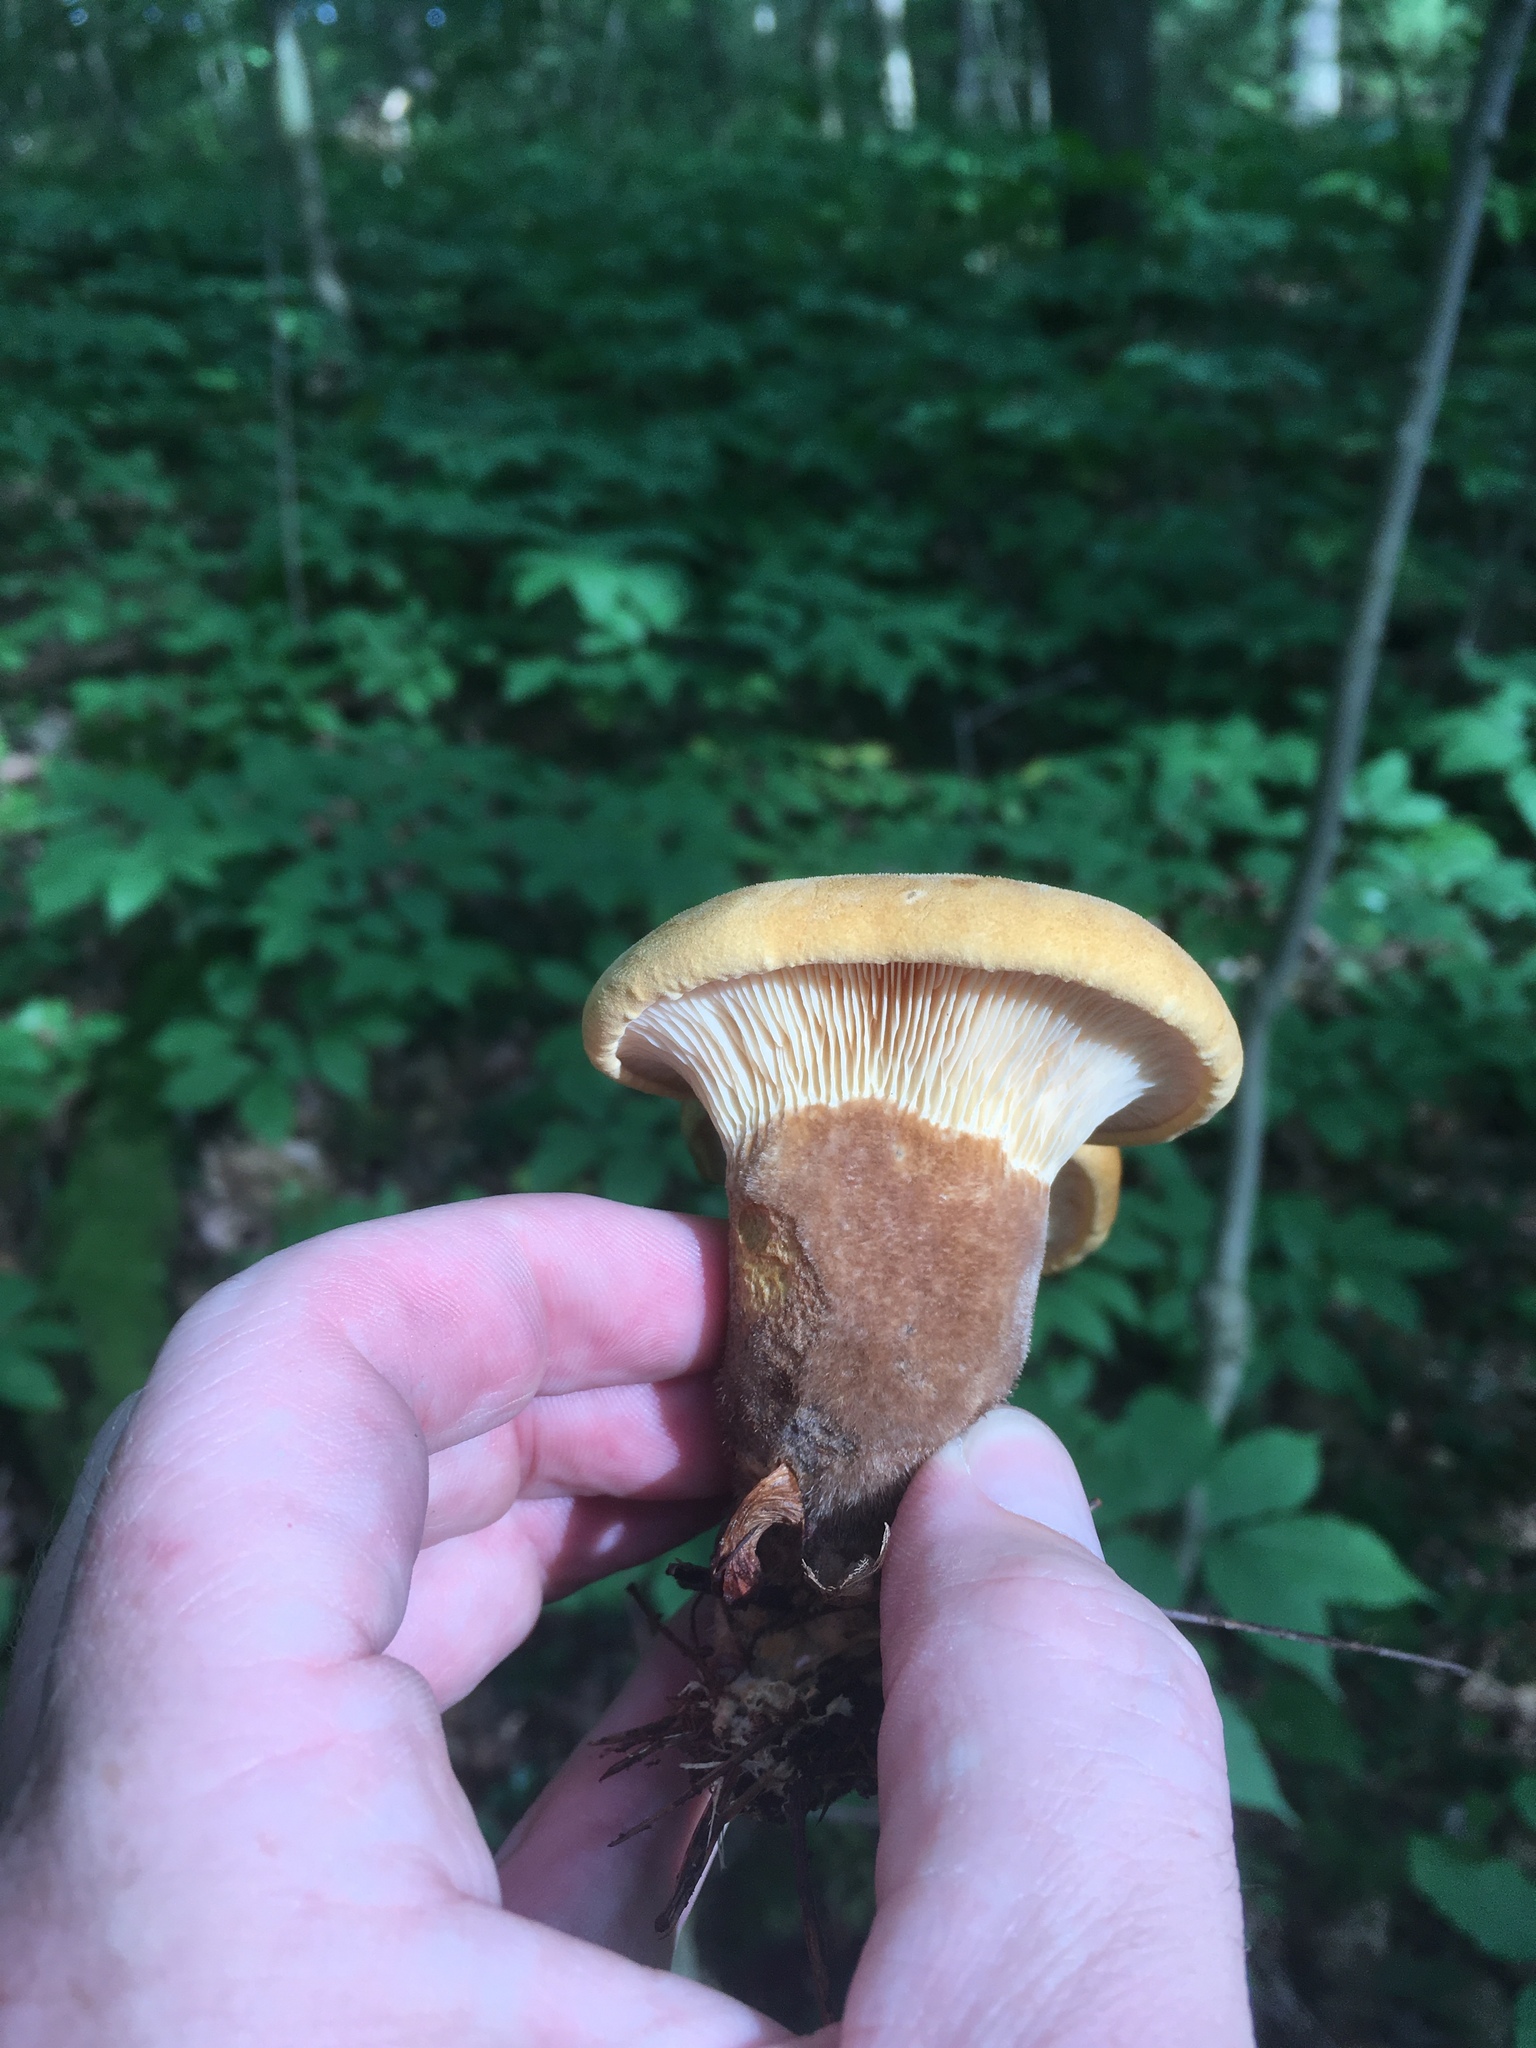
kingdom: Fungi
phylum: Basidiomycota
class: Agaricomycetes
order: Boletales
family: Tapinellaceae
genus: Tapinella
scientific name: Tapinella atrotomentosa
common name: Velvet rollrim
